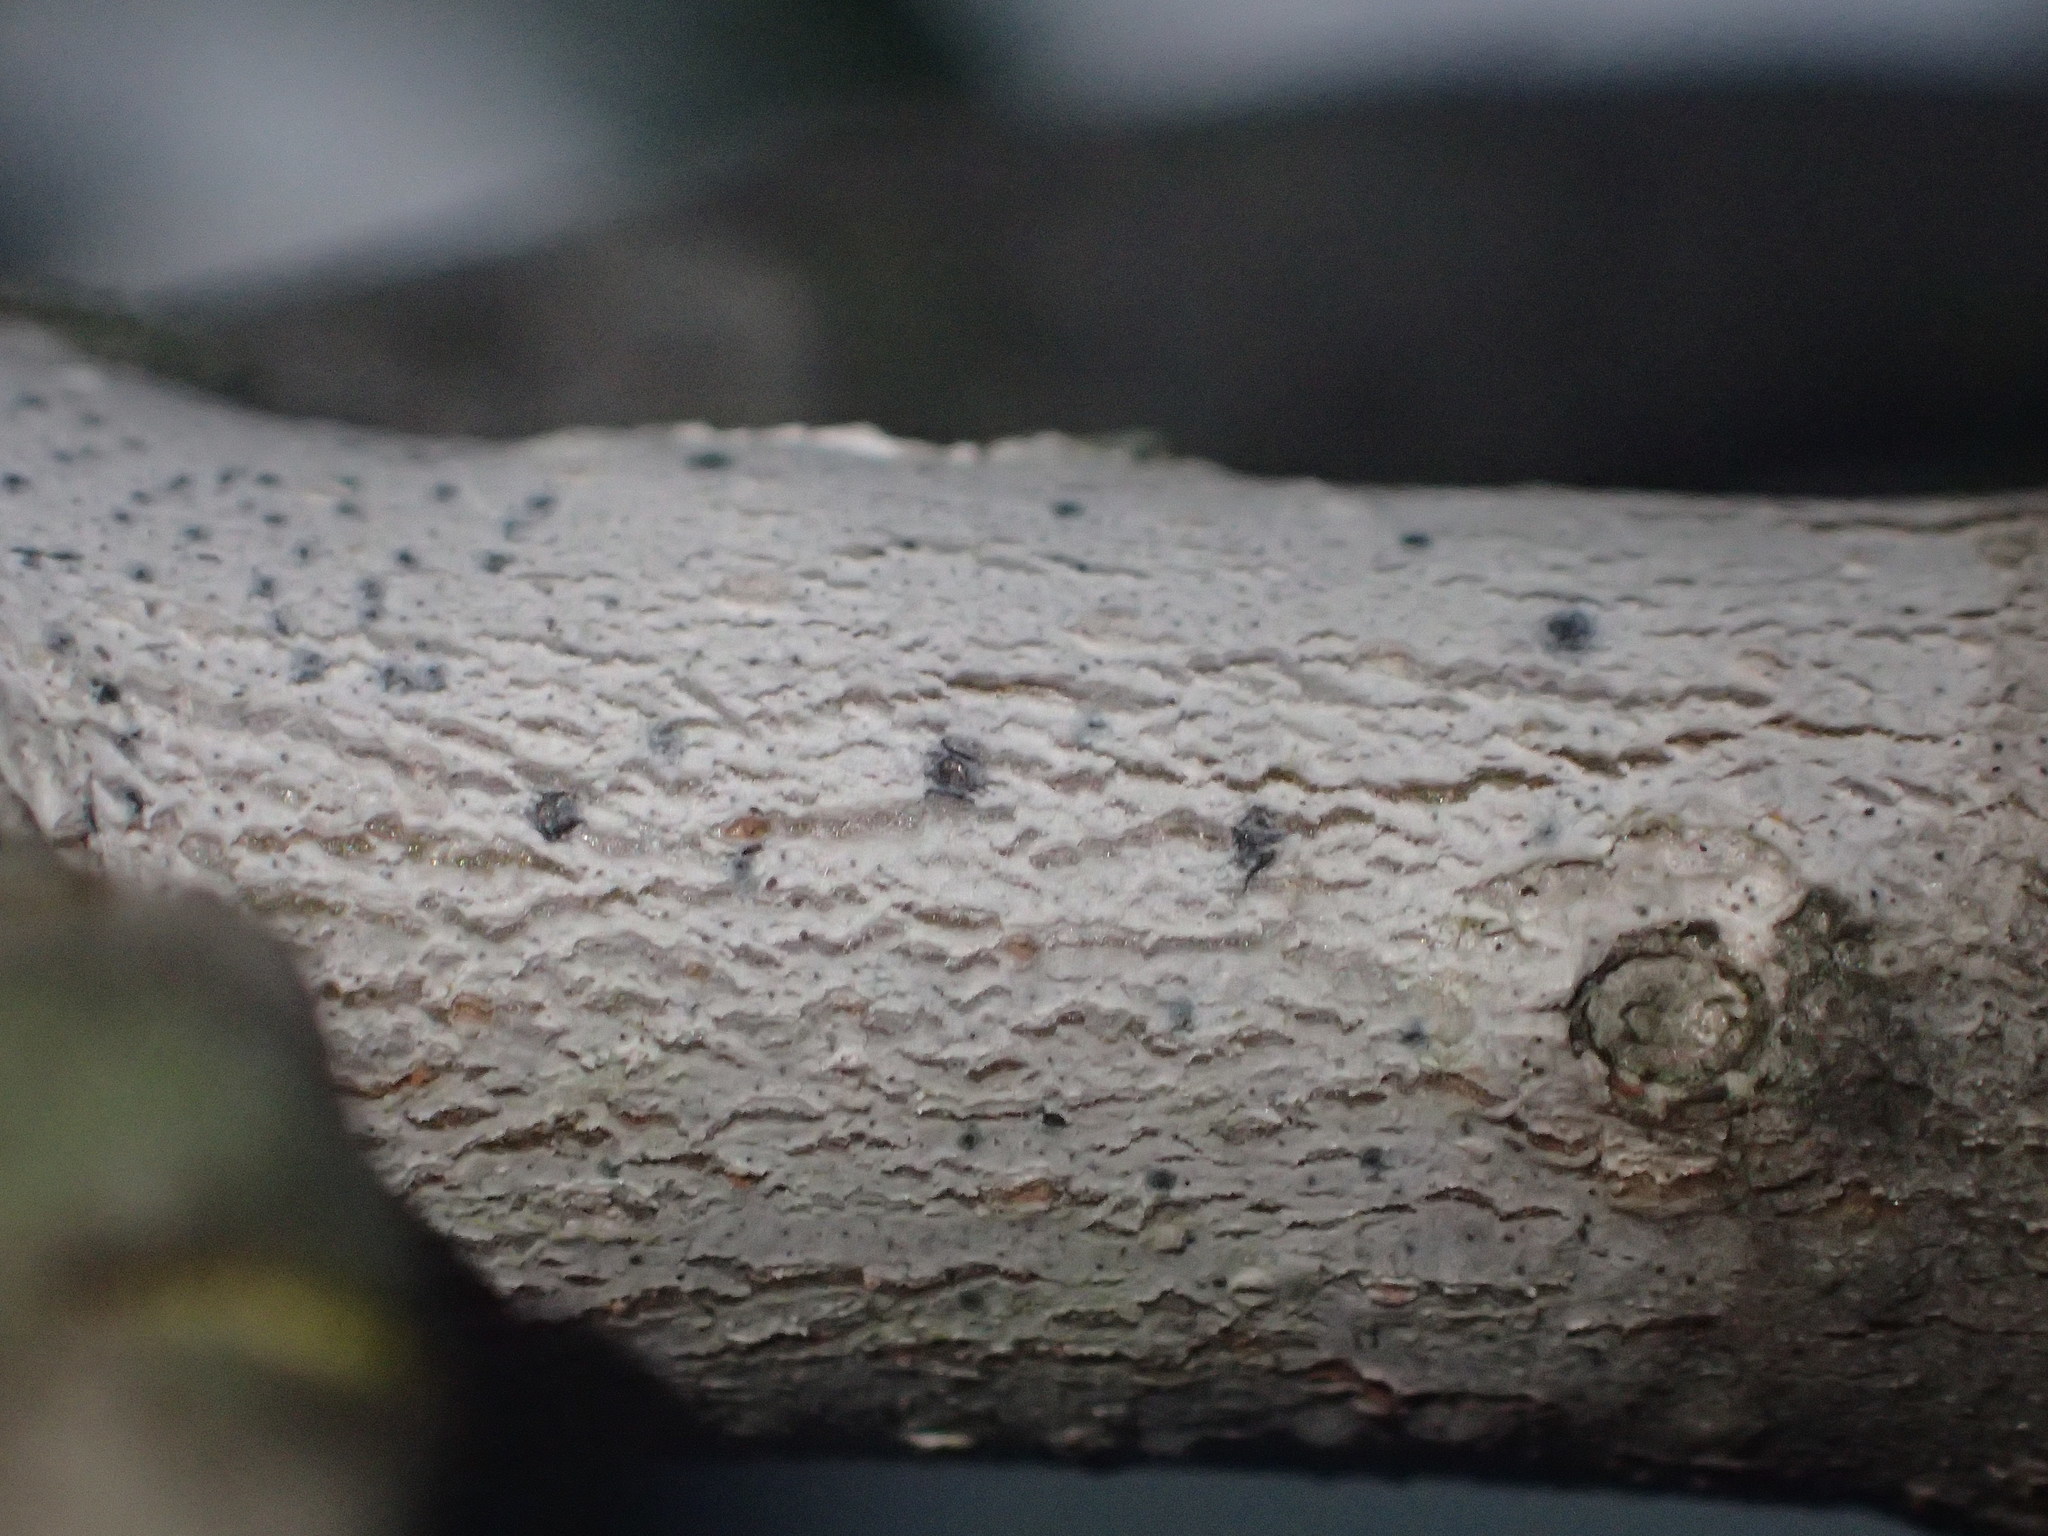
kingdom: Fungi
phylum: Ascomycota
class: Arthoniomycetes
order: Arthoniales
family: Arthoniaceae
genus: Arthonia
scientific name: Arthonia susa
